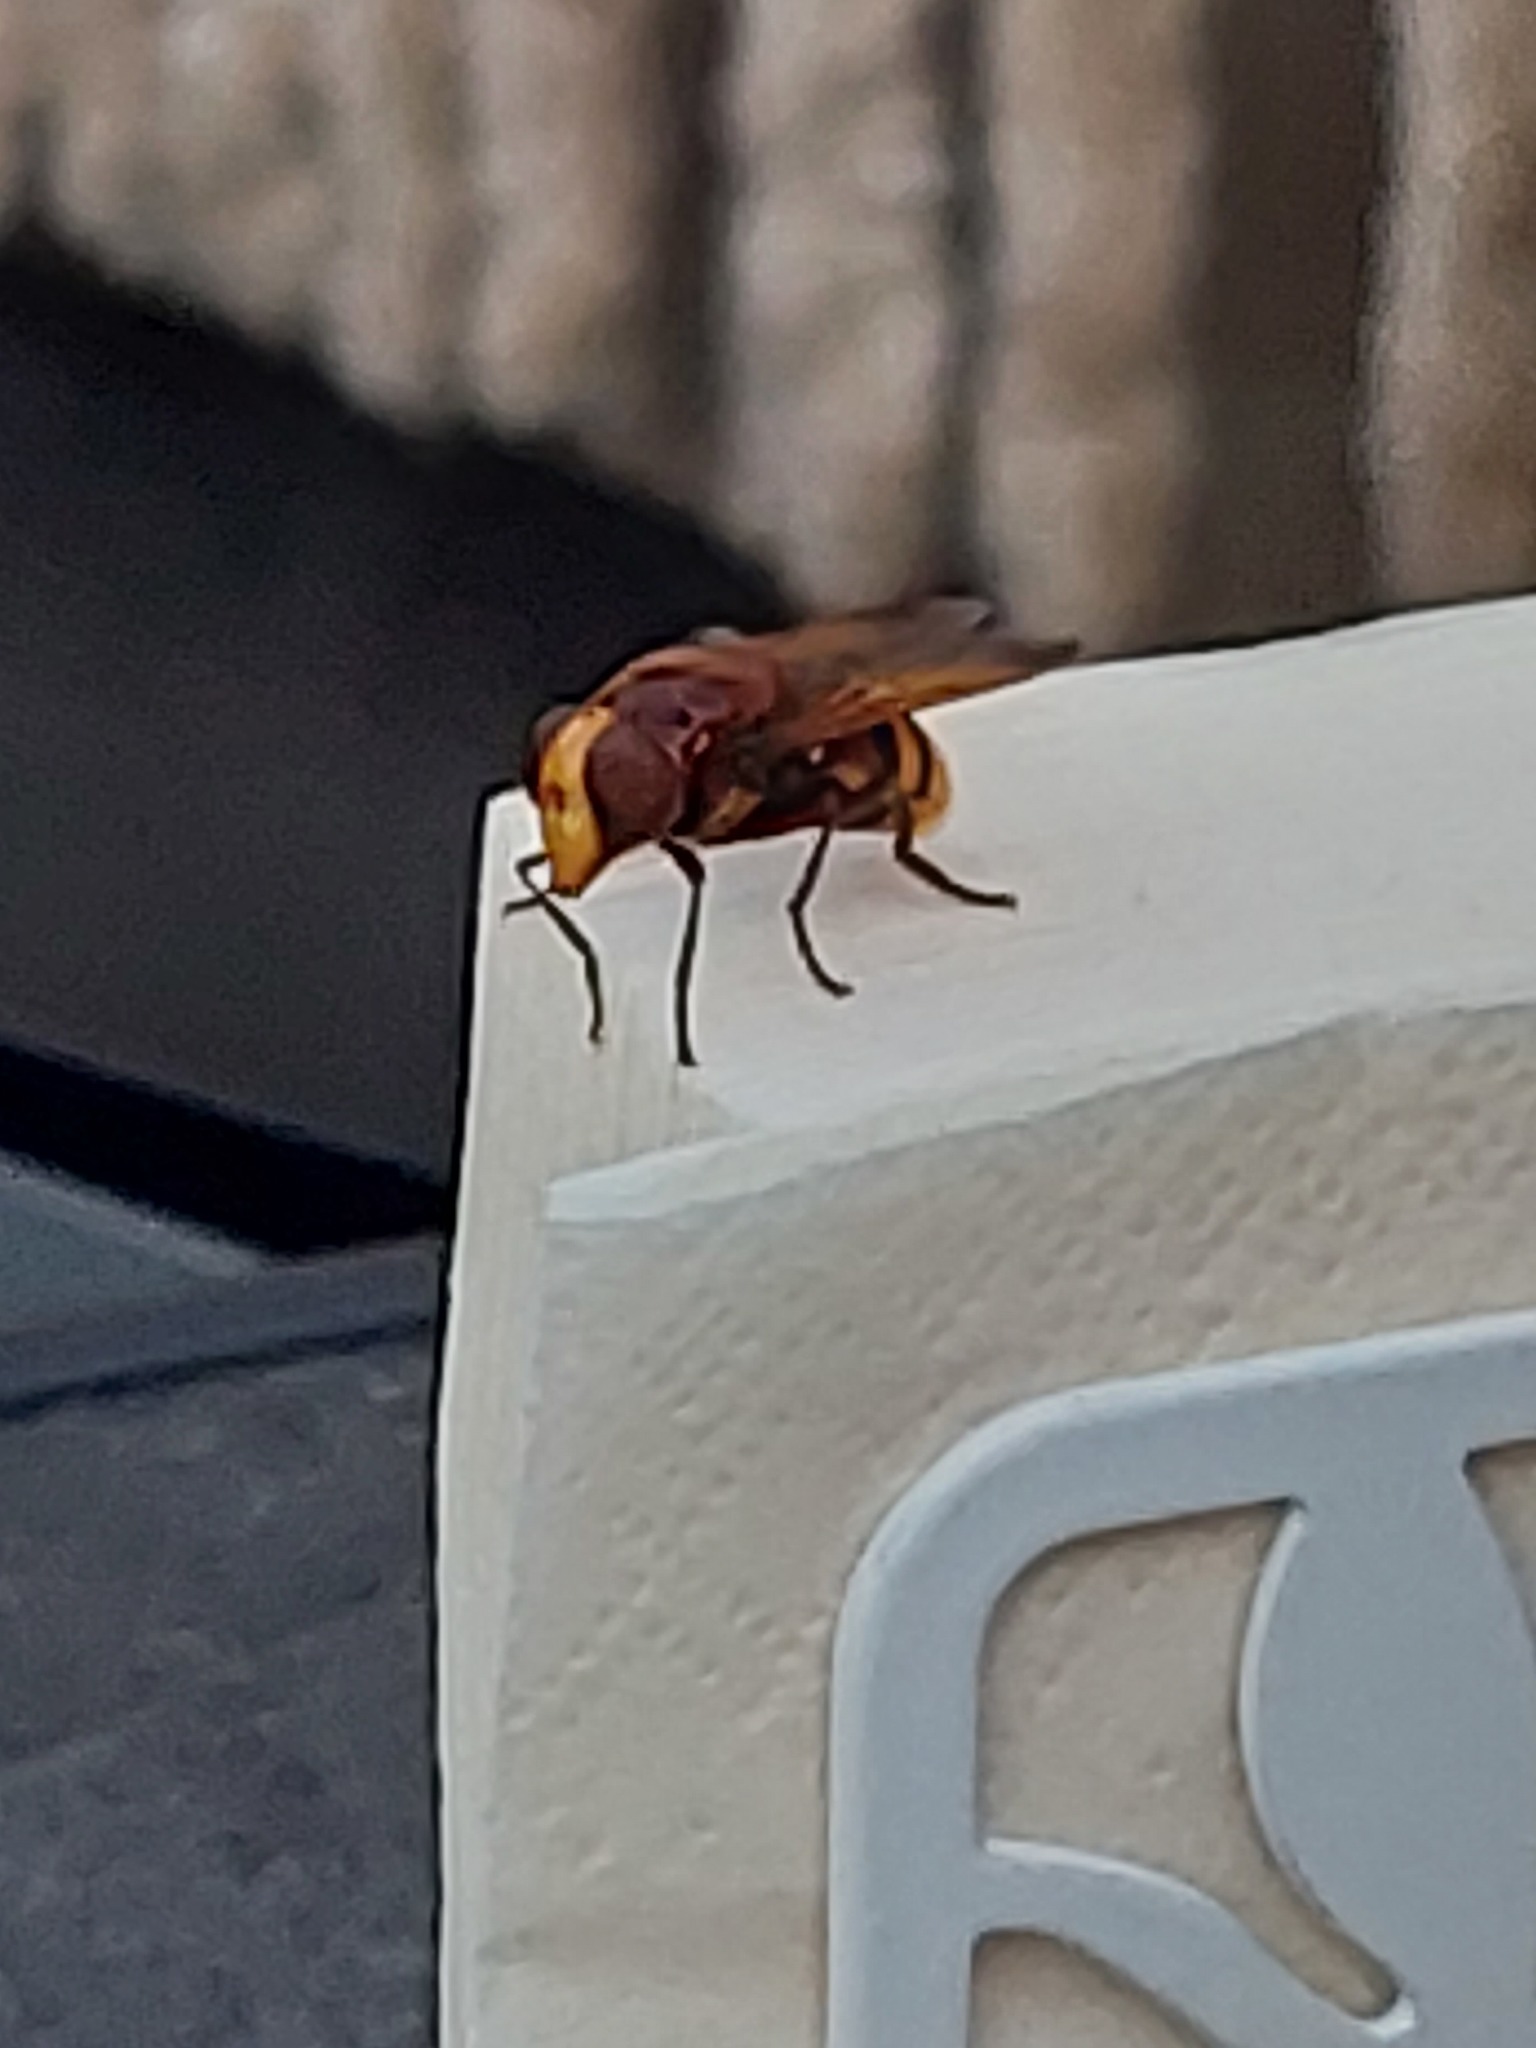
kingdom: Animalia
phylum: Arthropoda
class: Insecta
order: Diptera
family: Syrphidae
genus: Volucella
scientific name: Volucella zonaria
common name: Hornet hoverfly
